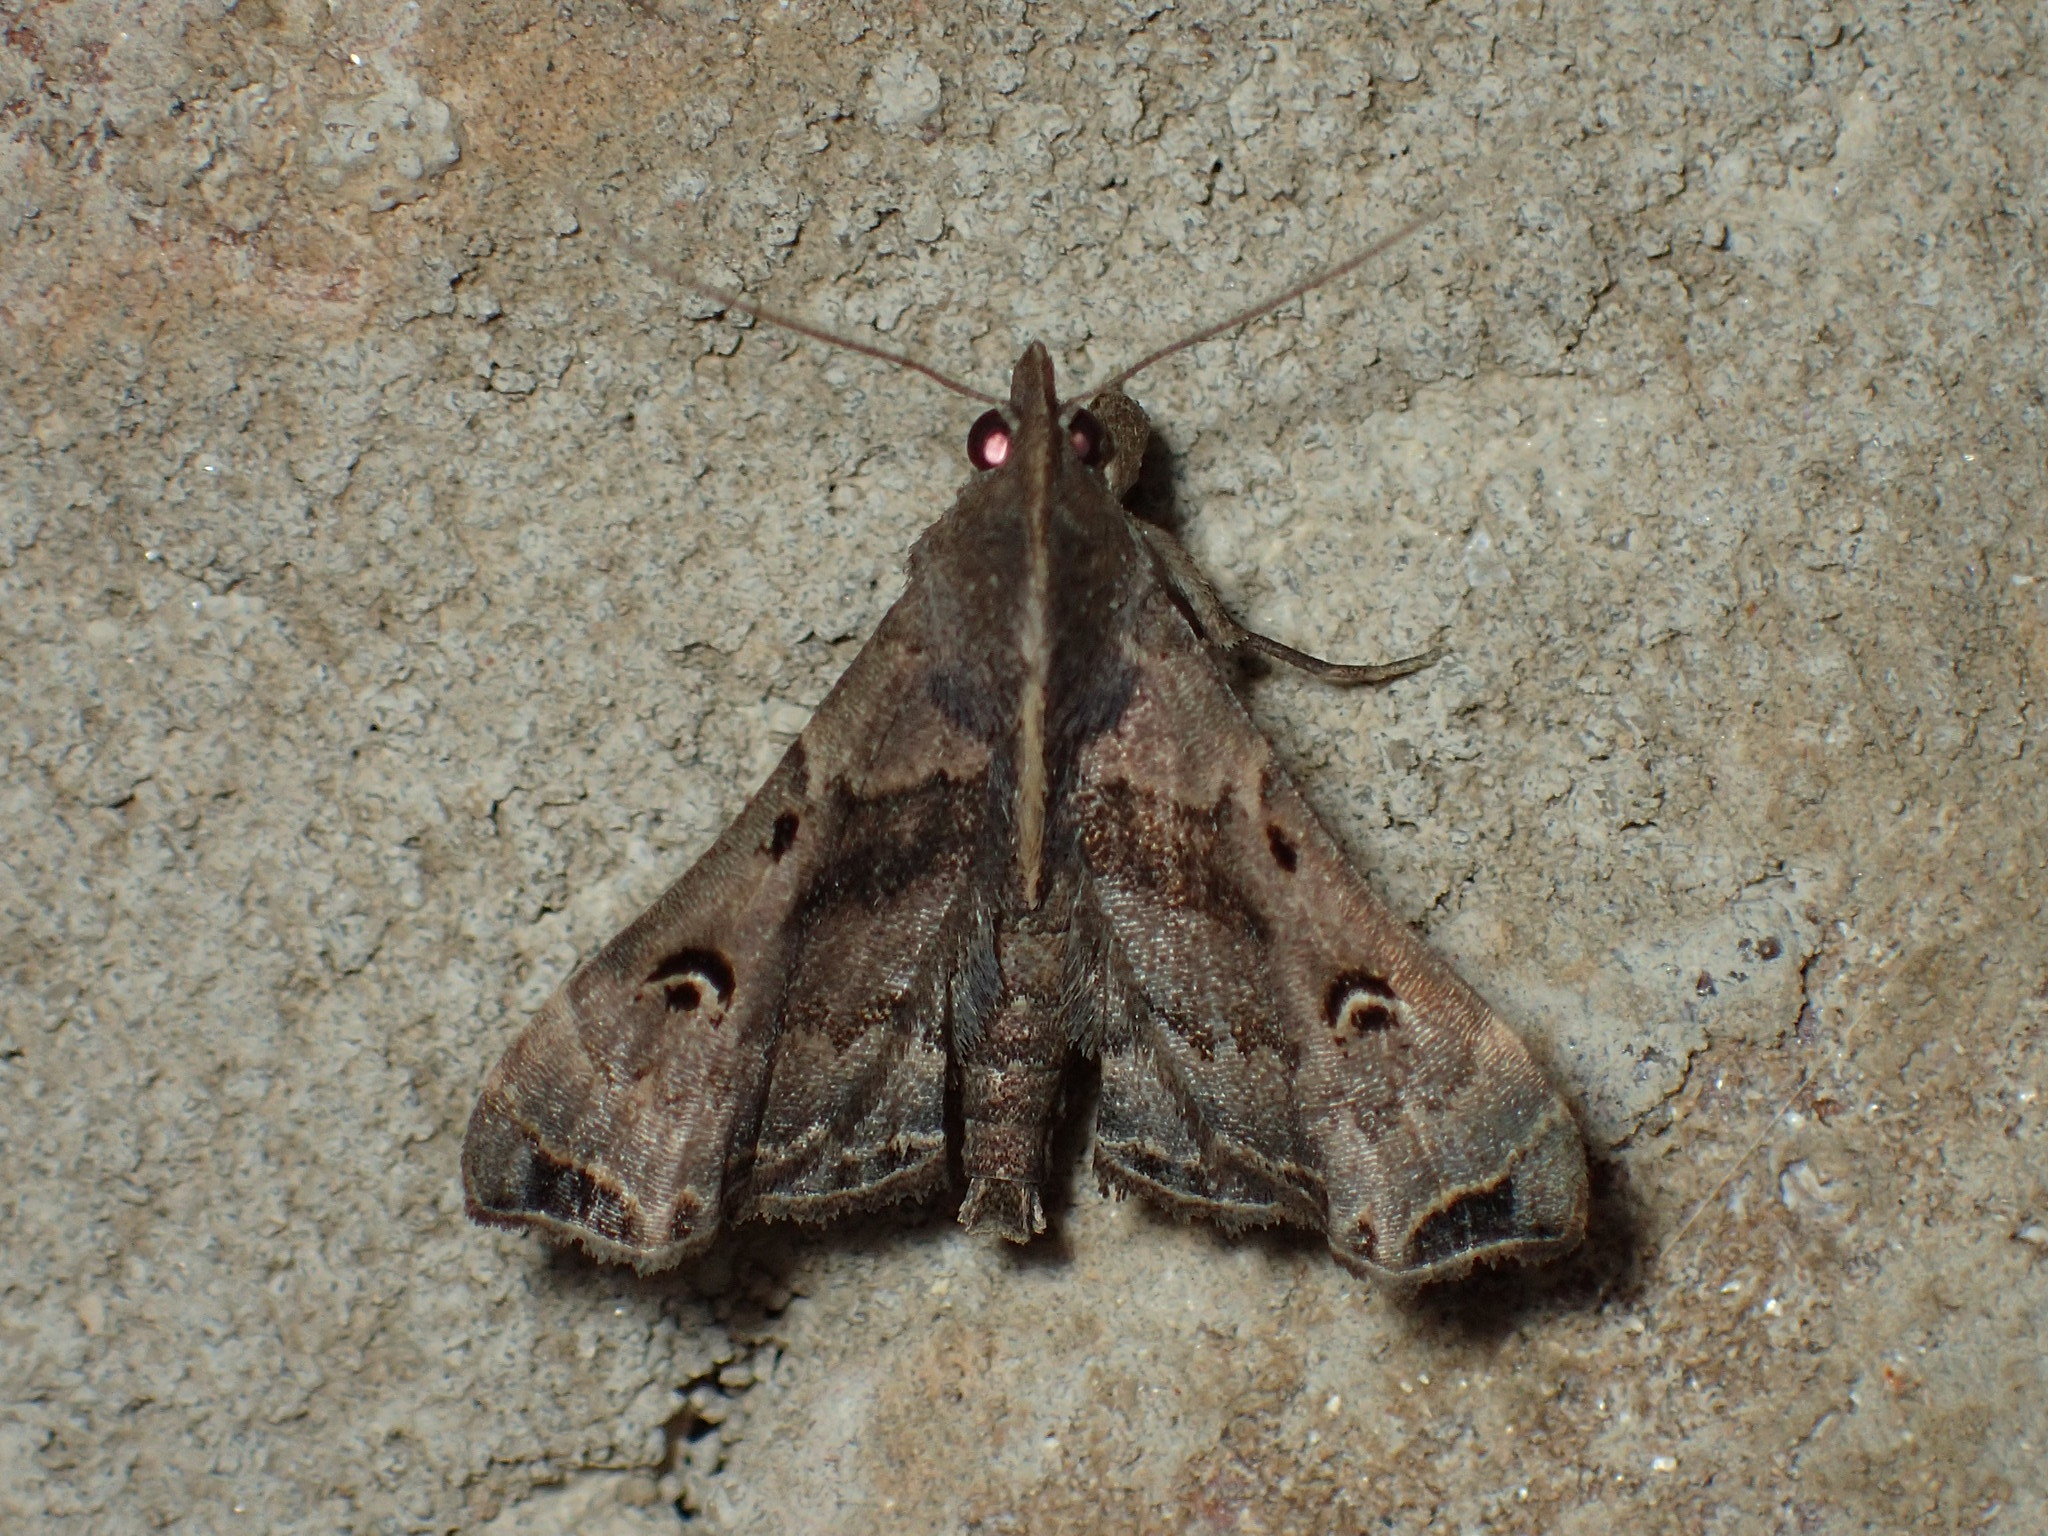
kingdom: Animalia
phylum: Arthropoda
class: Insecta
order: Lepidoptera
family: Erebidae
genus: Palthis
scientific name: Palthis asopialis
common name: Faint-spotted palthis moth
